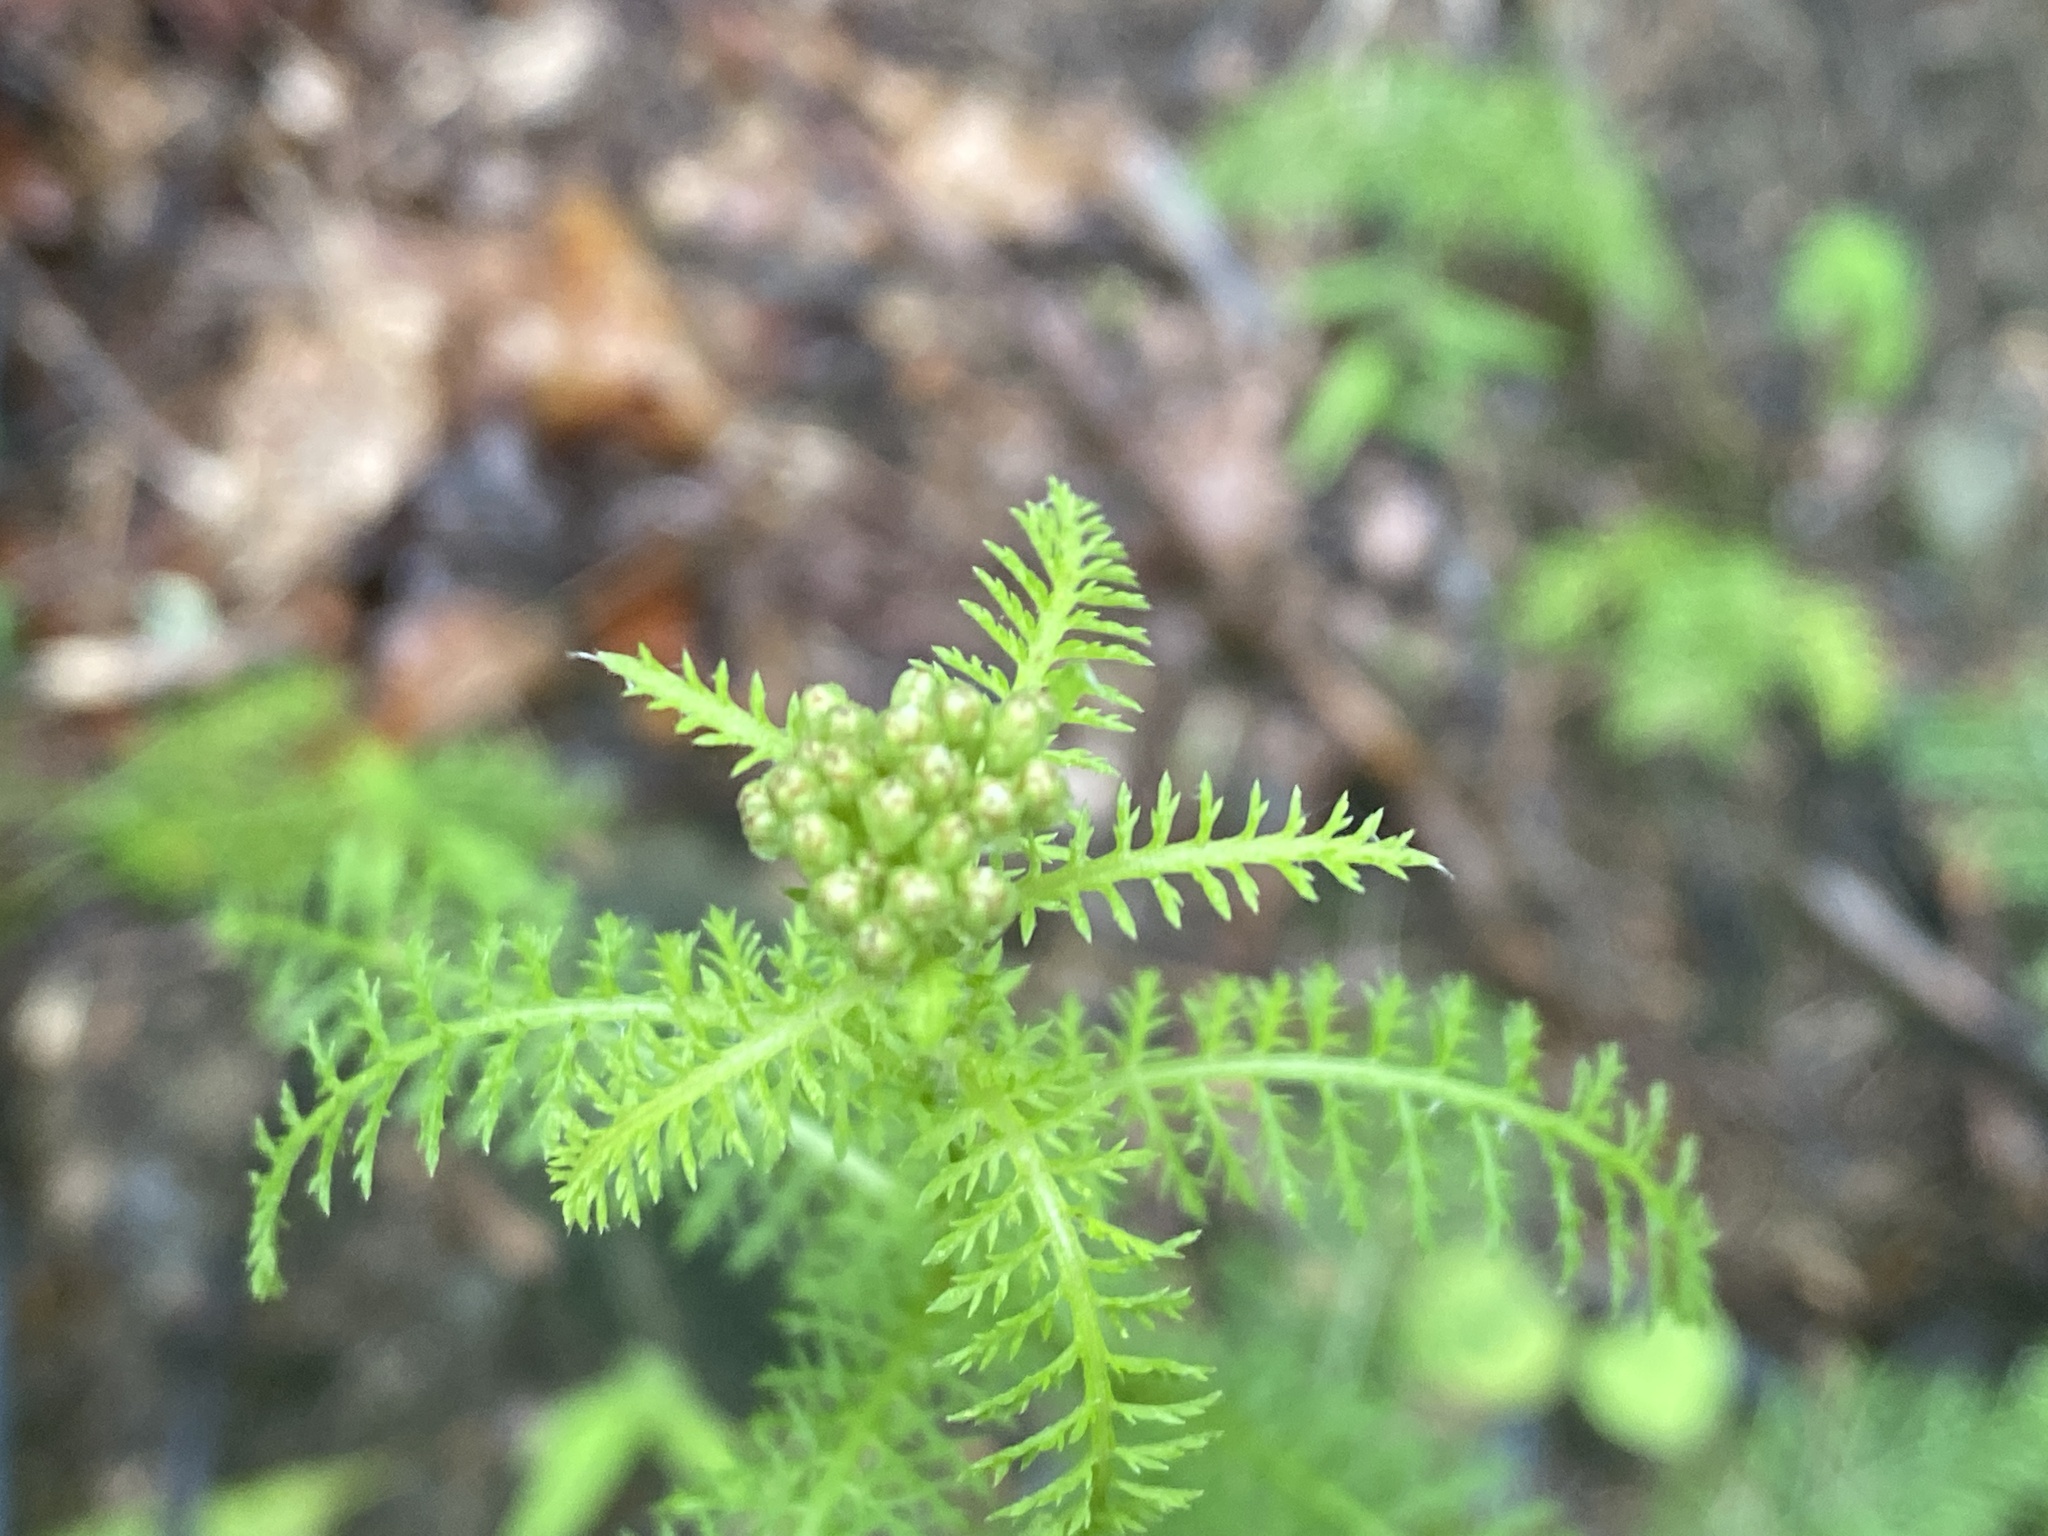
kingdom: Plantae
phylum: Tracheophyta
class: Magnoliopsida
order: Asterales
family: Asteraceae
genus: Achillea
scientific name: Achillea millefolium
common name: Yarrow
